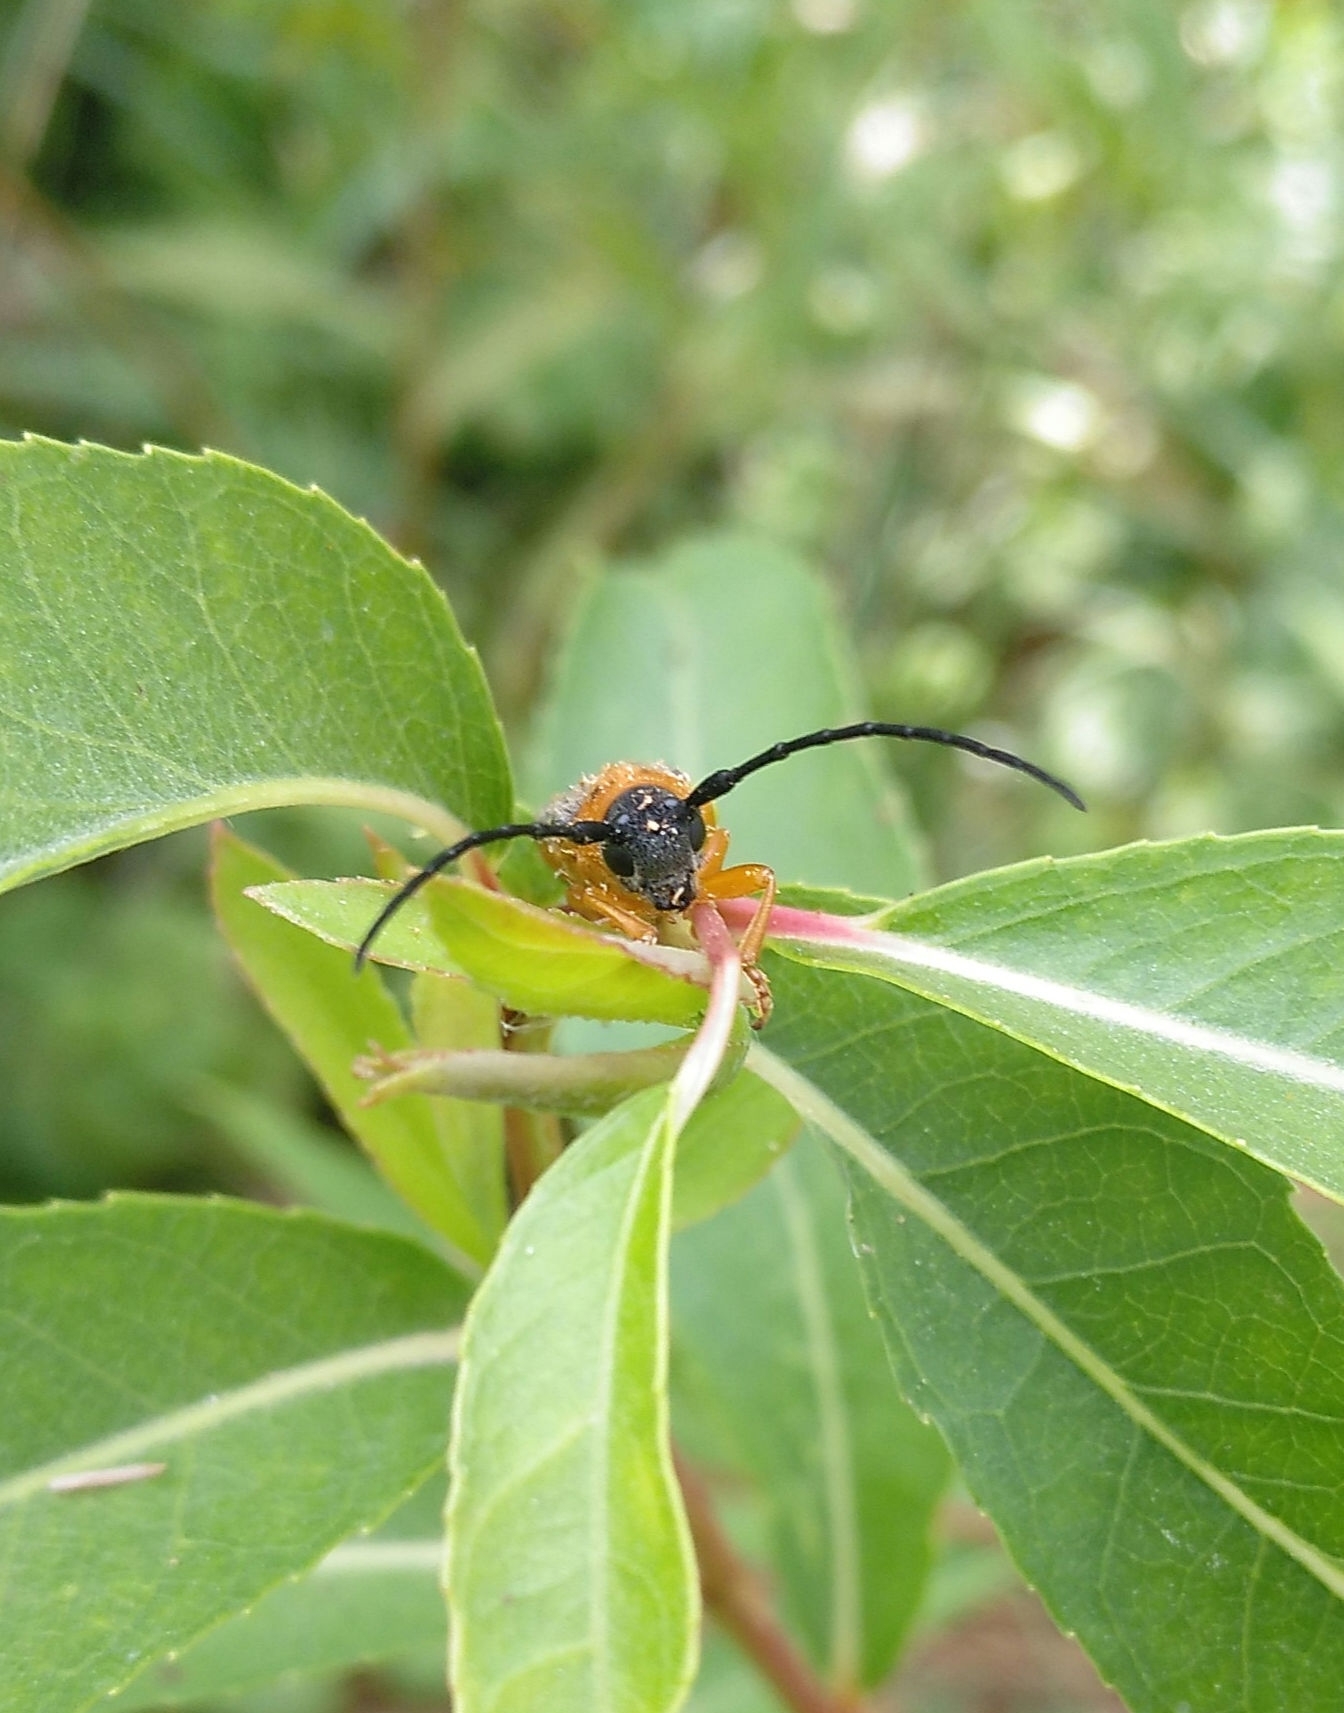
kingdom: Animalia
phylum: Arthropoda
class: Insecta
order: Coleoptera
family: Cerambycidae
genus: Oberea
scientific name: Oberea oculata
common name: Eyed longhorn beetle
